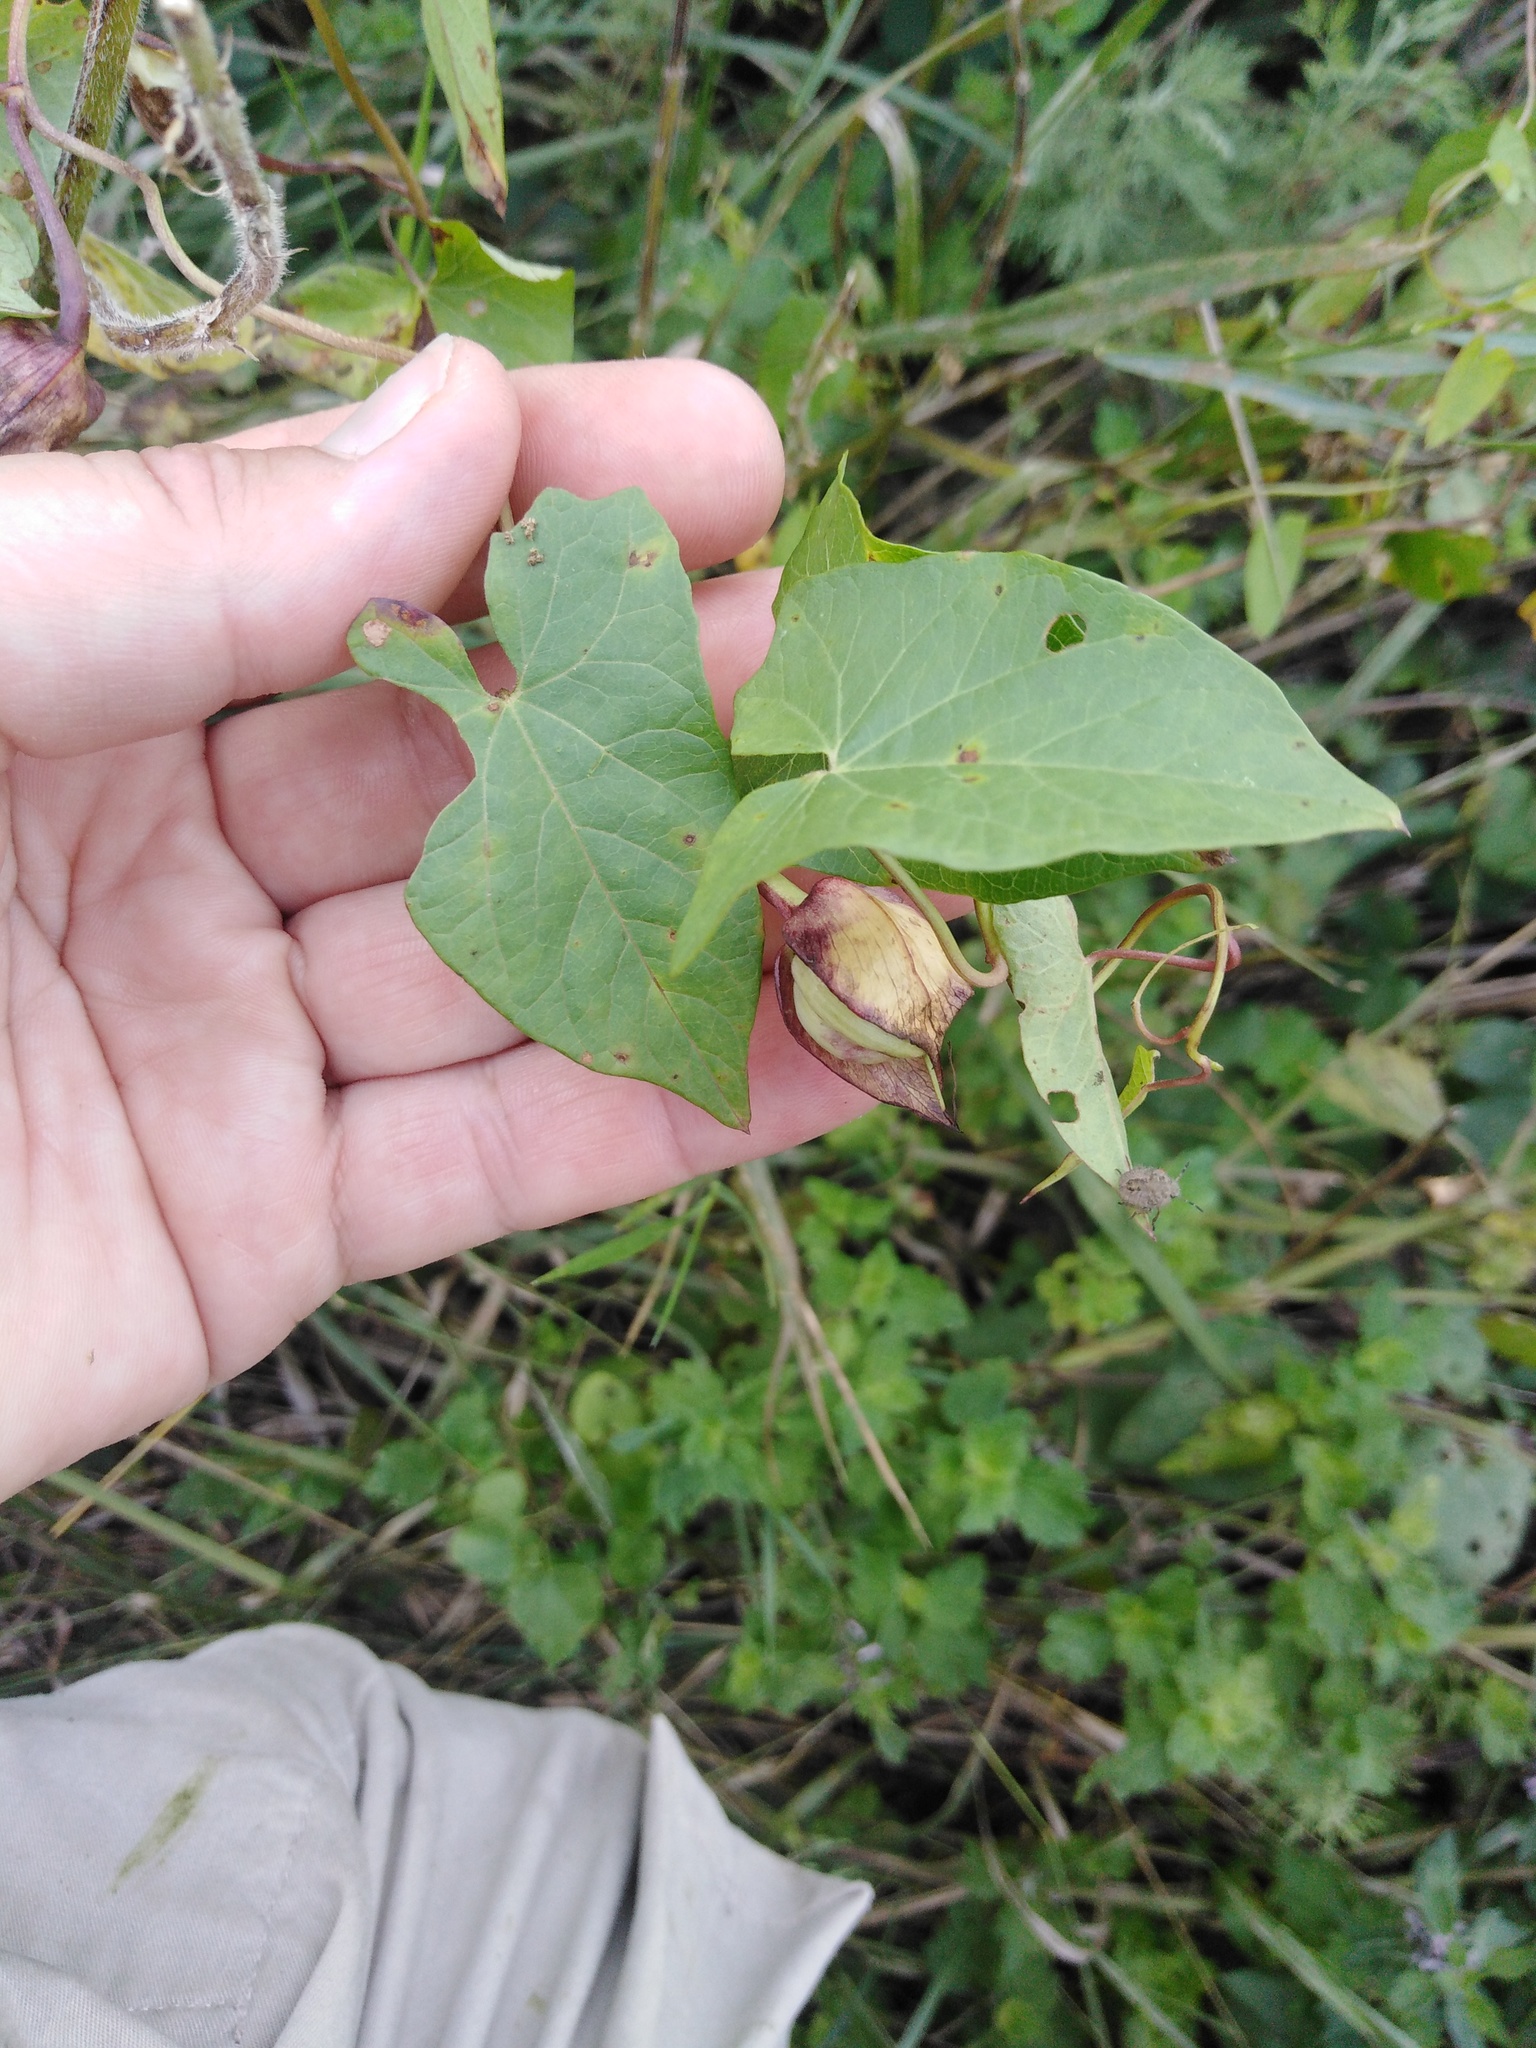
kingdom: Plantae
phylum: Tracheophyta
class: Magnoliopsida
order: Solanales
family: Convolvulaceae
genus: Calystegia
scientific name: Calystegia sepium
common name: Hedge bindweed
